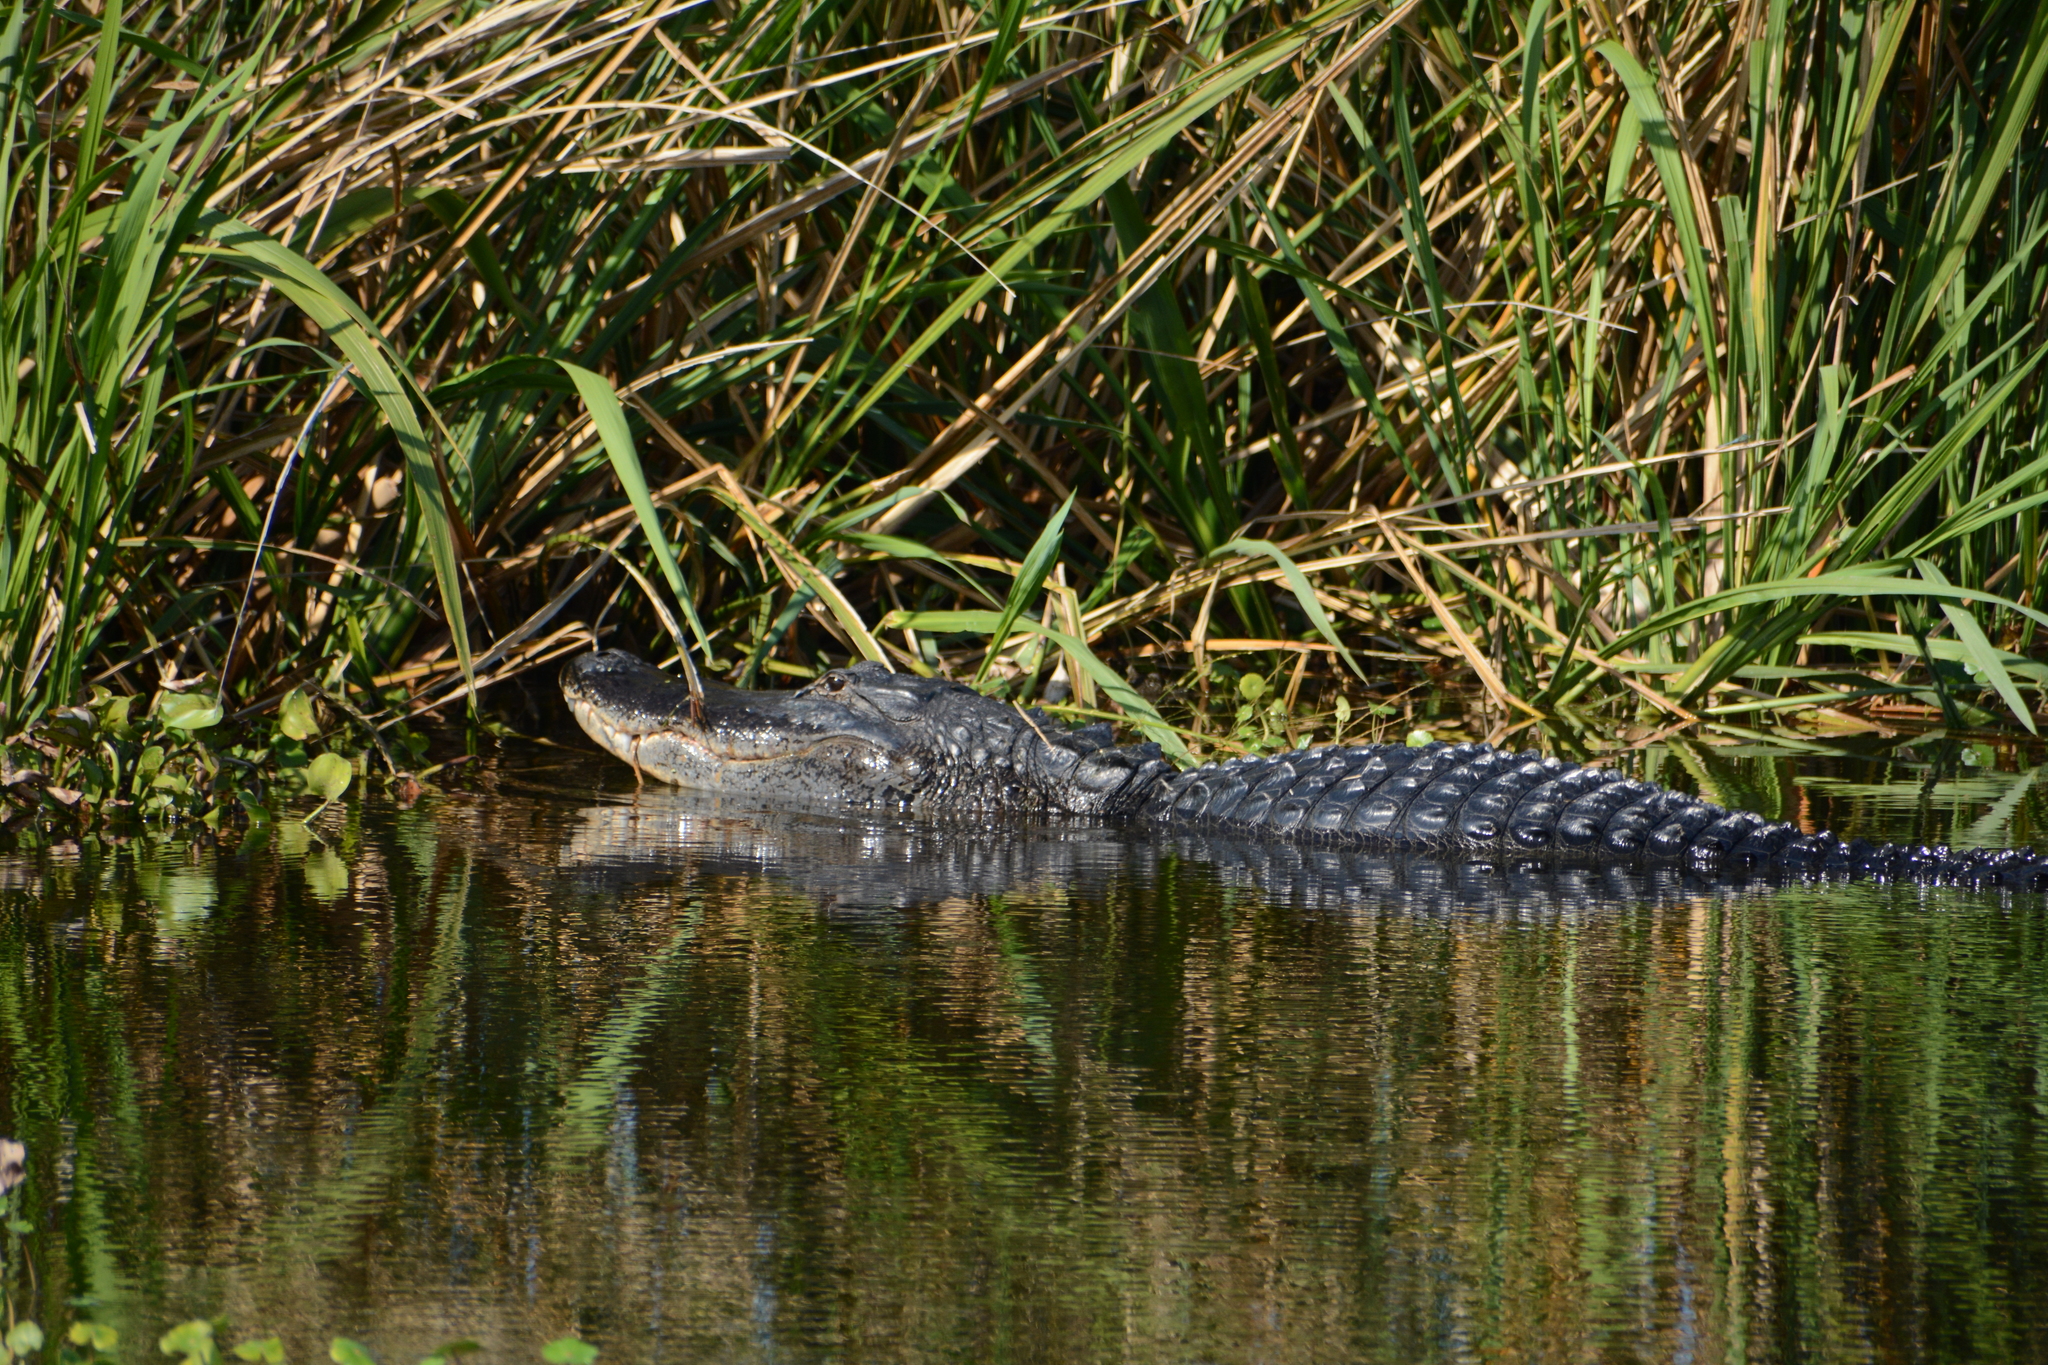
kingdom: Animalia
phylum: Chordata
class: Crocodylia
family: Alligatoridae
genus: Alligator
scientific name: Alligator mississippiensis
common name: American alligator
